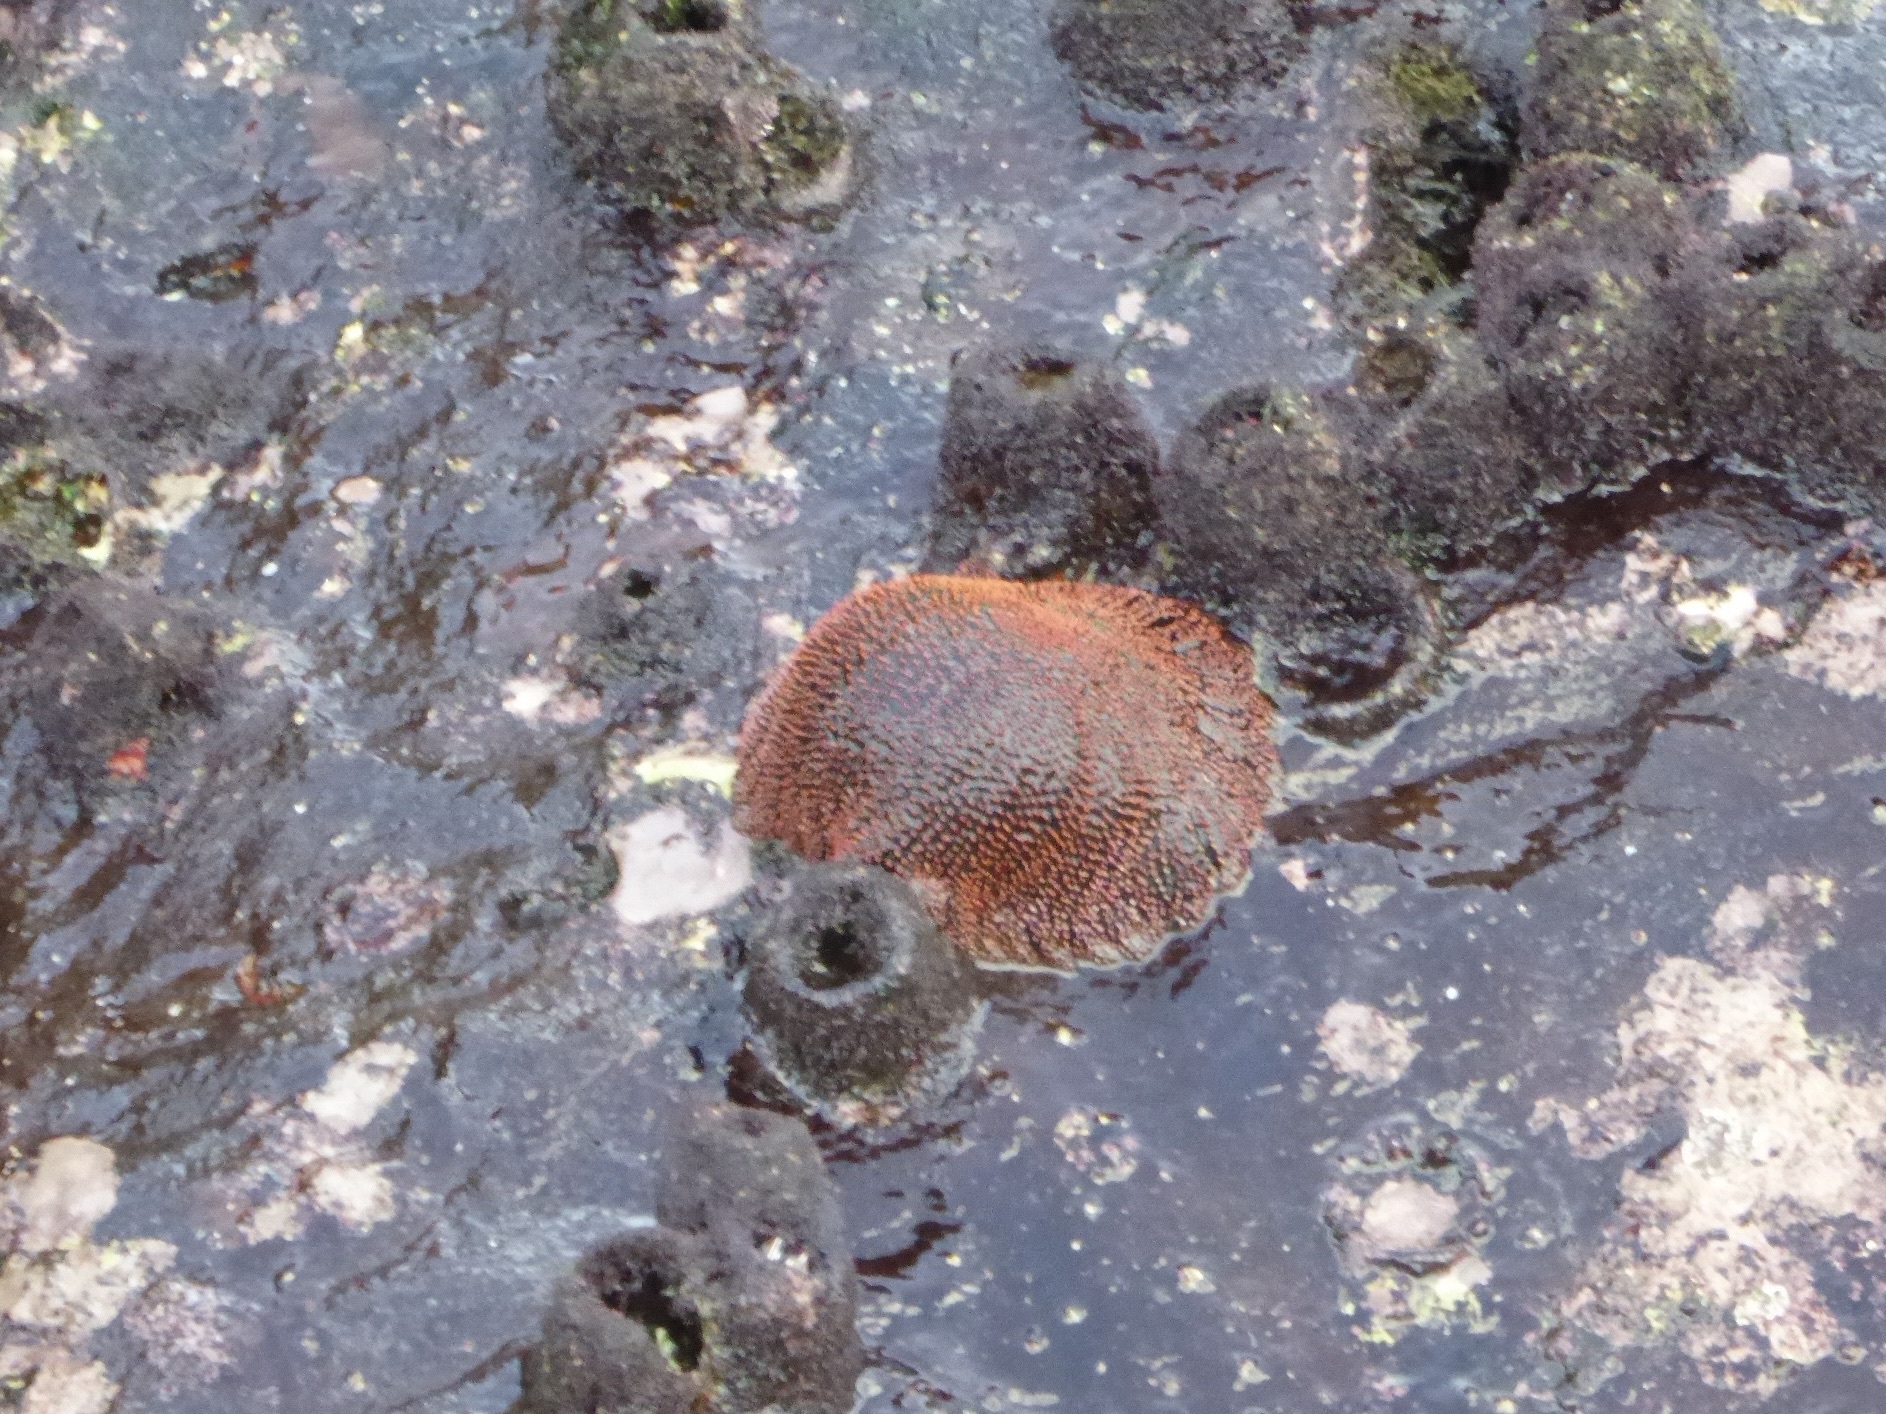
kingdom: Animalia
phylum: Echinodermata
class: Asteroidea
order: Forcipulatida
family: Heliasteridae
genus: Heliaster
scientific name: Heliaster cumingi
